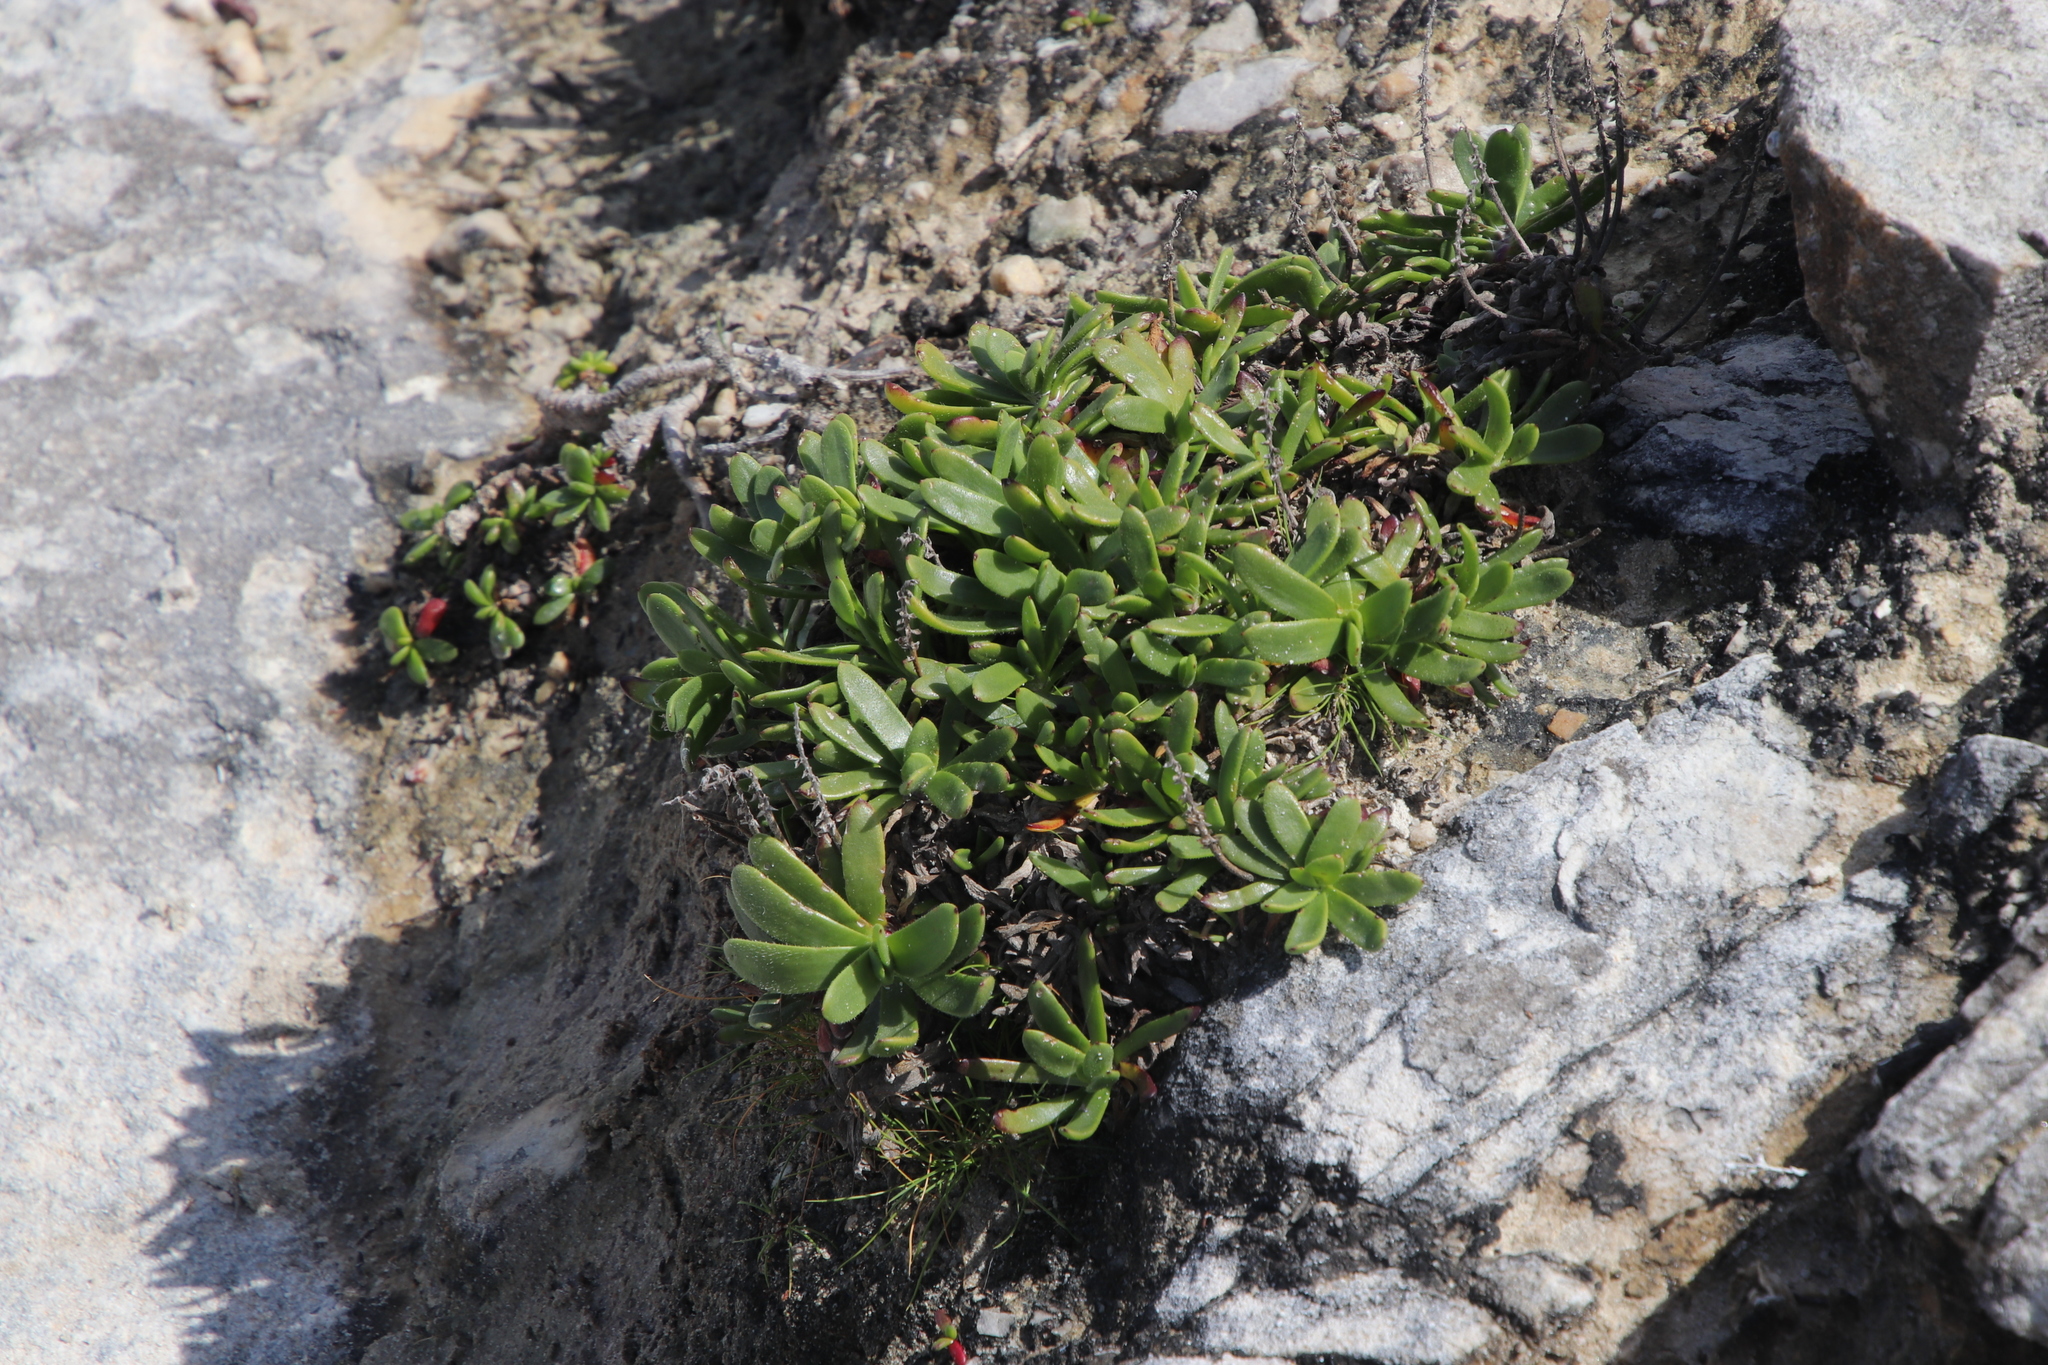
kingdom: Plantae
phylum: Tracheophyta
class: Magnoliopsida
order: Lamiales
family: Plantaginaceae
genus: Plantago
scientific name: Plantago carnosa
